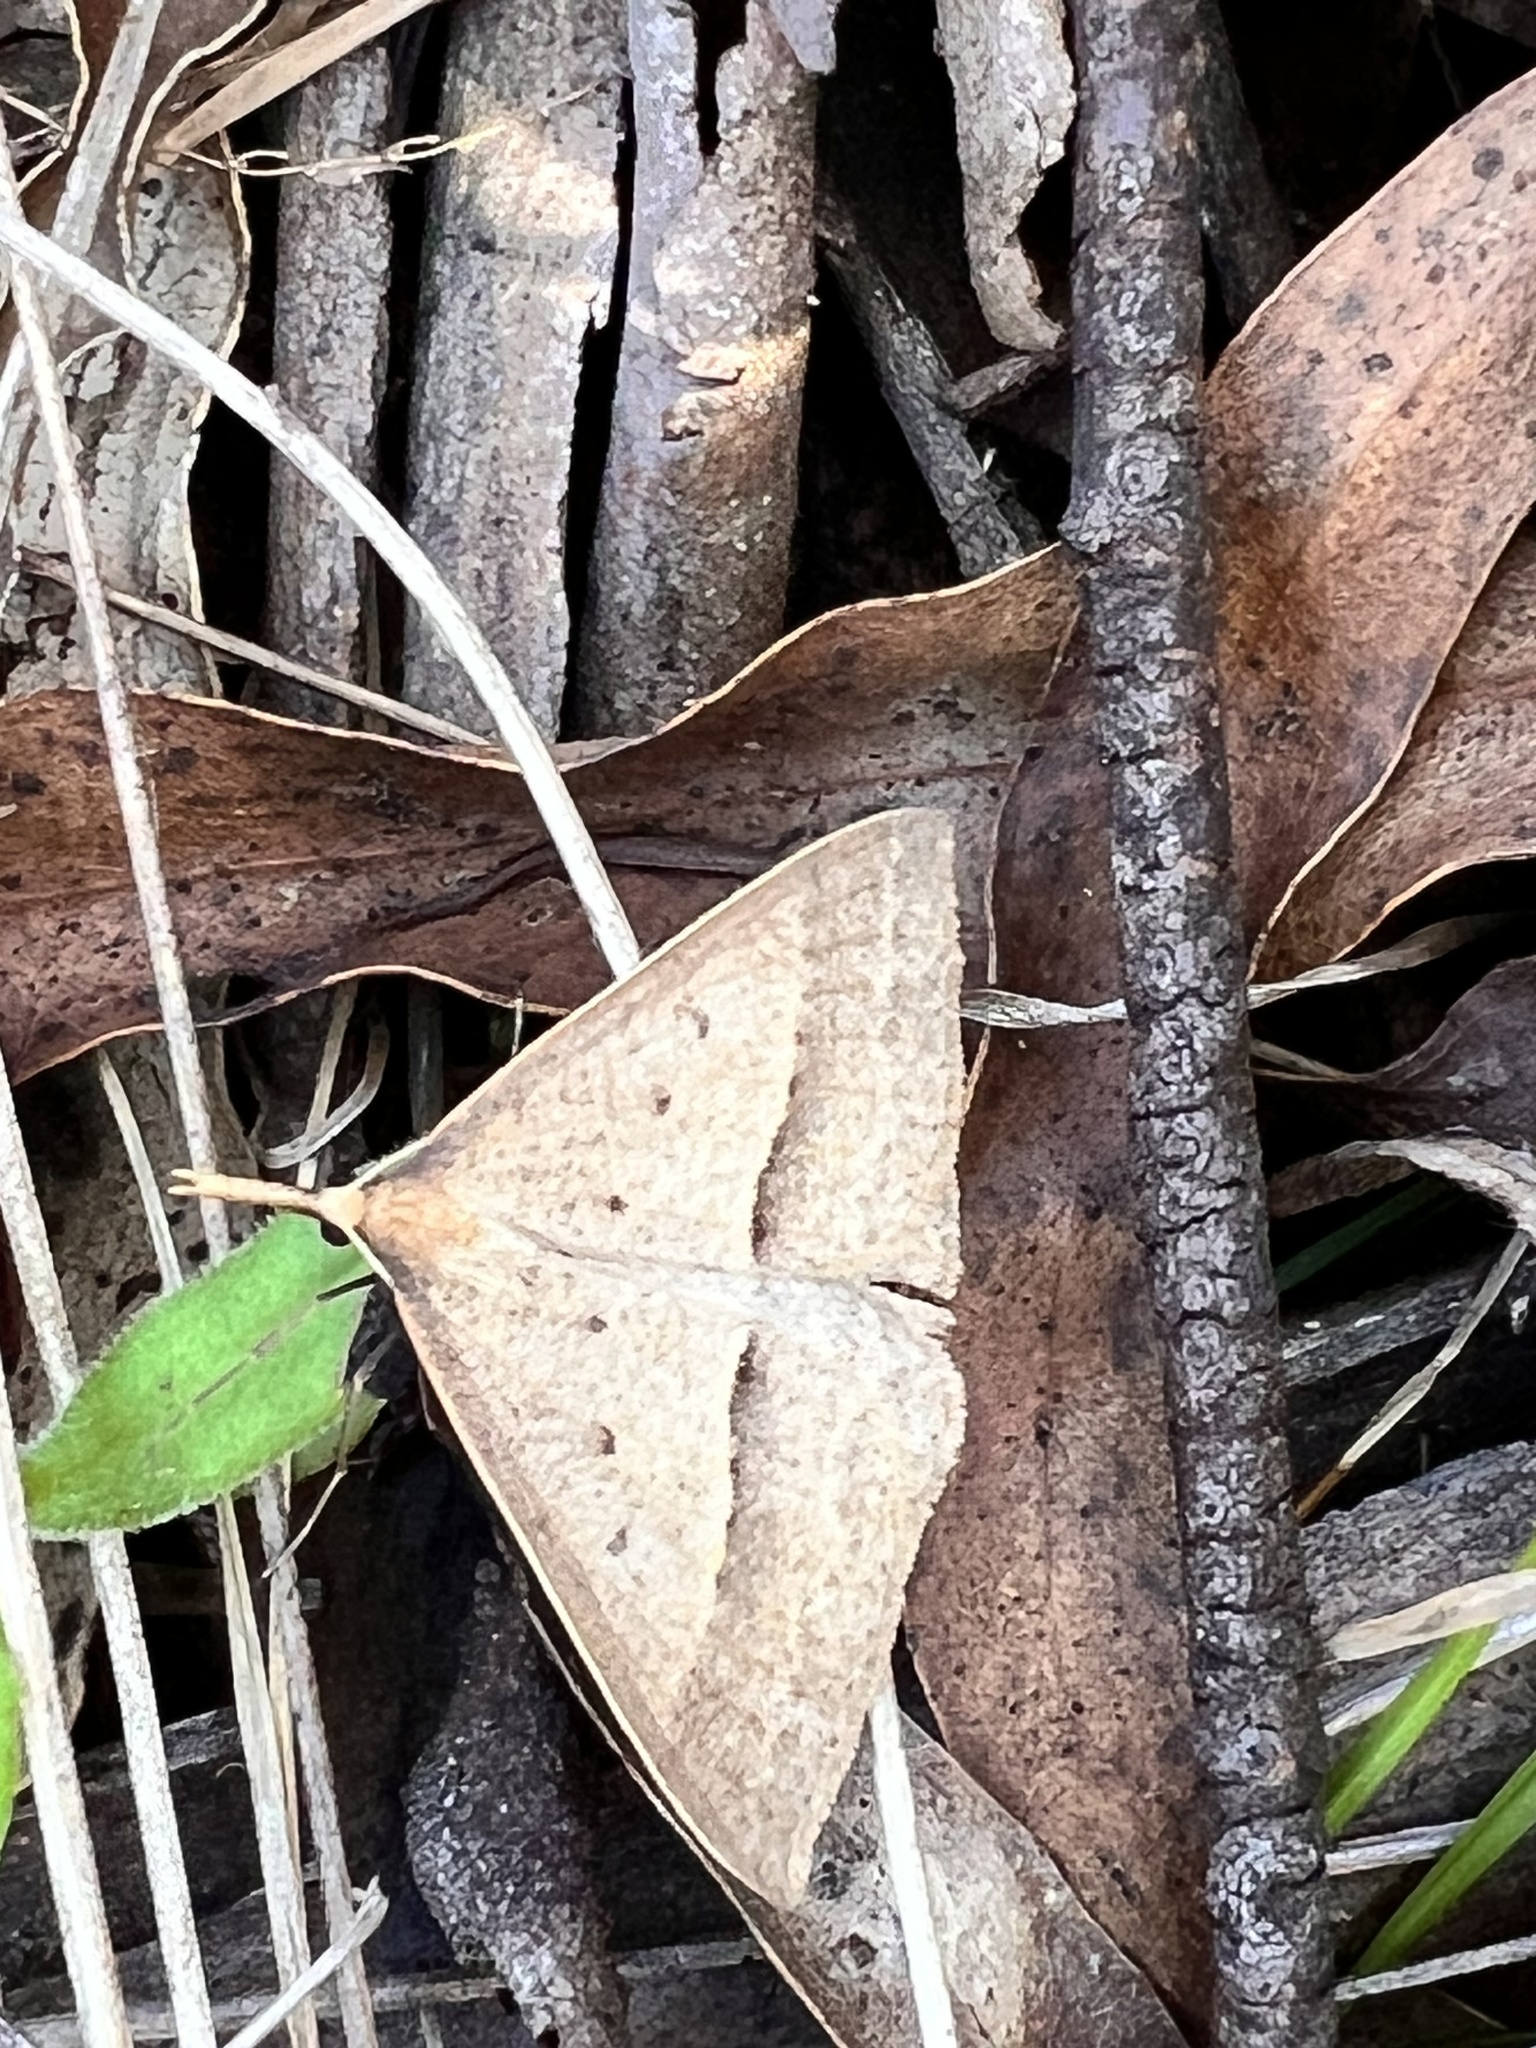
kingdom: Animalia
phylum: Arthropoda
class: Insecta
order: Lepidoptera
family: Geometridae
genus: Epidesmia
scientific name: Epidesmia hypenaria
